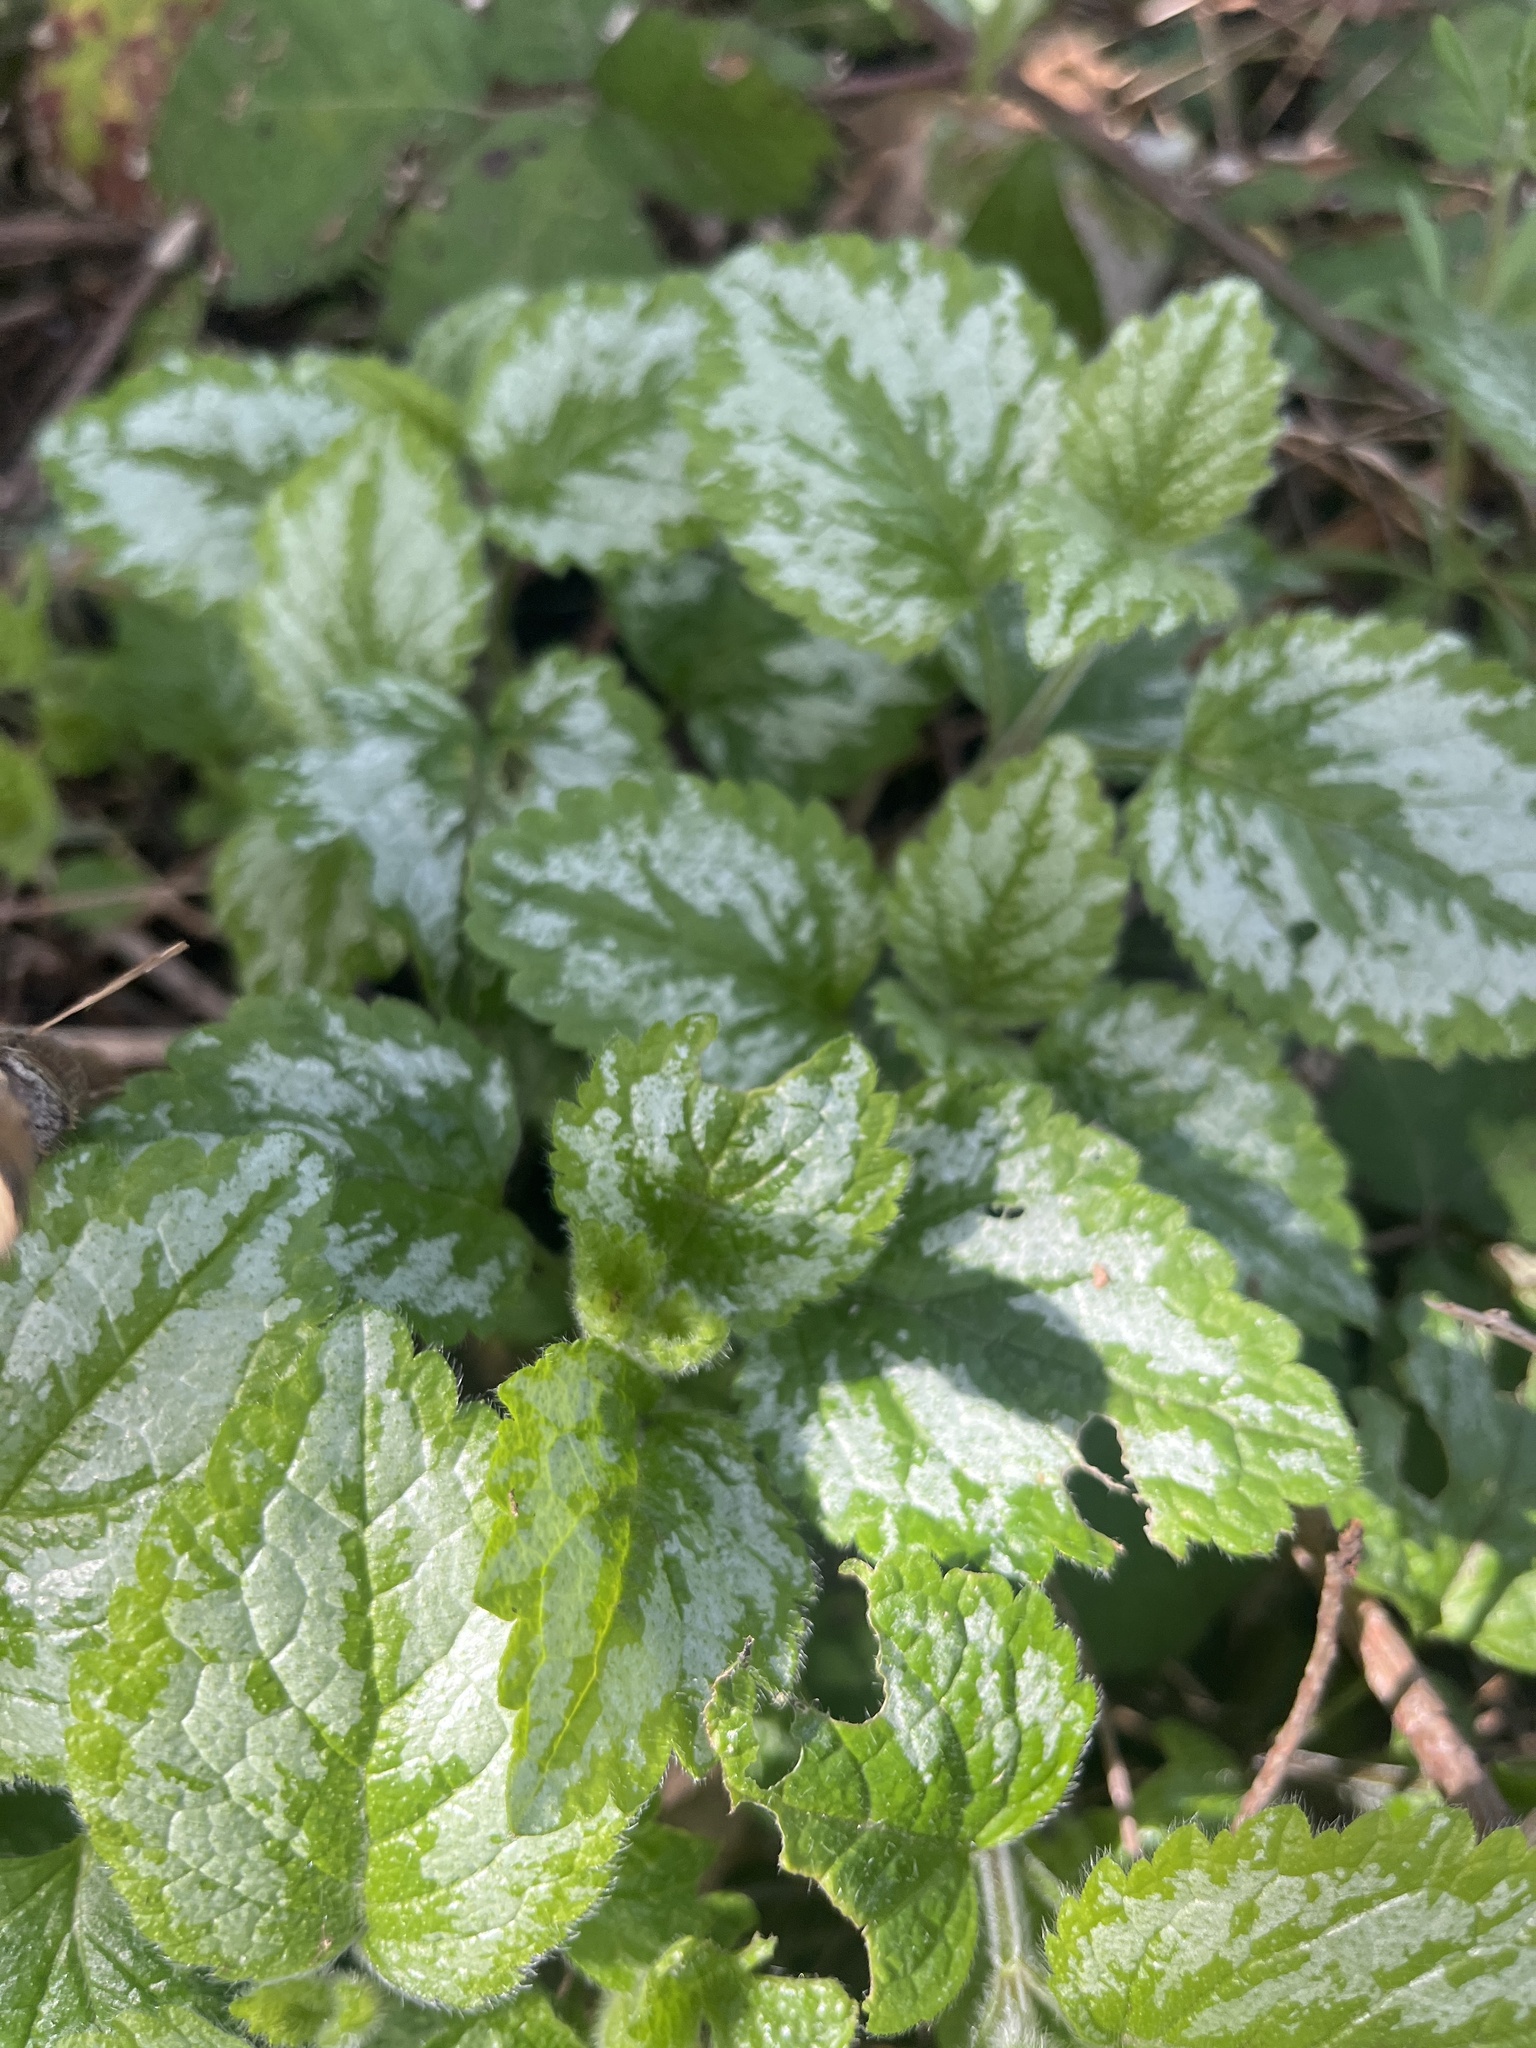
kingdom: Plantae
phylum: Tracheophyta
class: Magnoliopsida
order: Lamiales
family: Lamiaceae
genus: Lamium
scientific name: Lamium galeobdolon
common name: Yellow archangel
